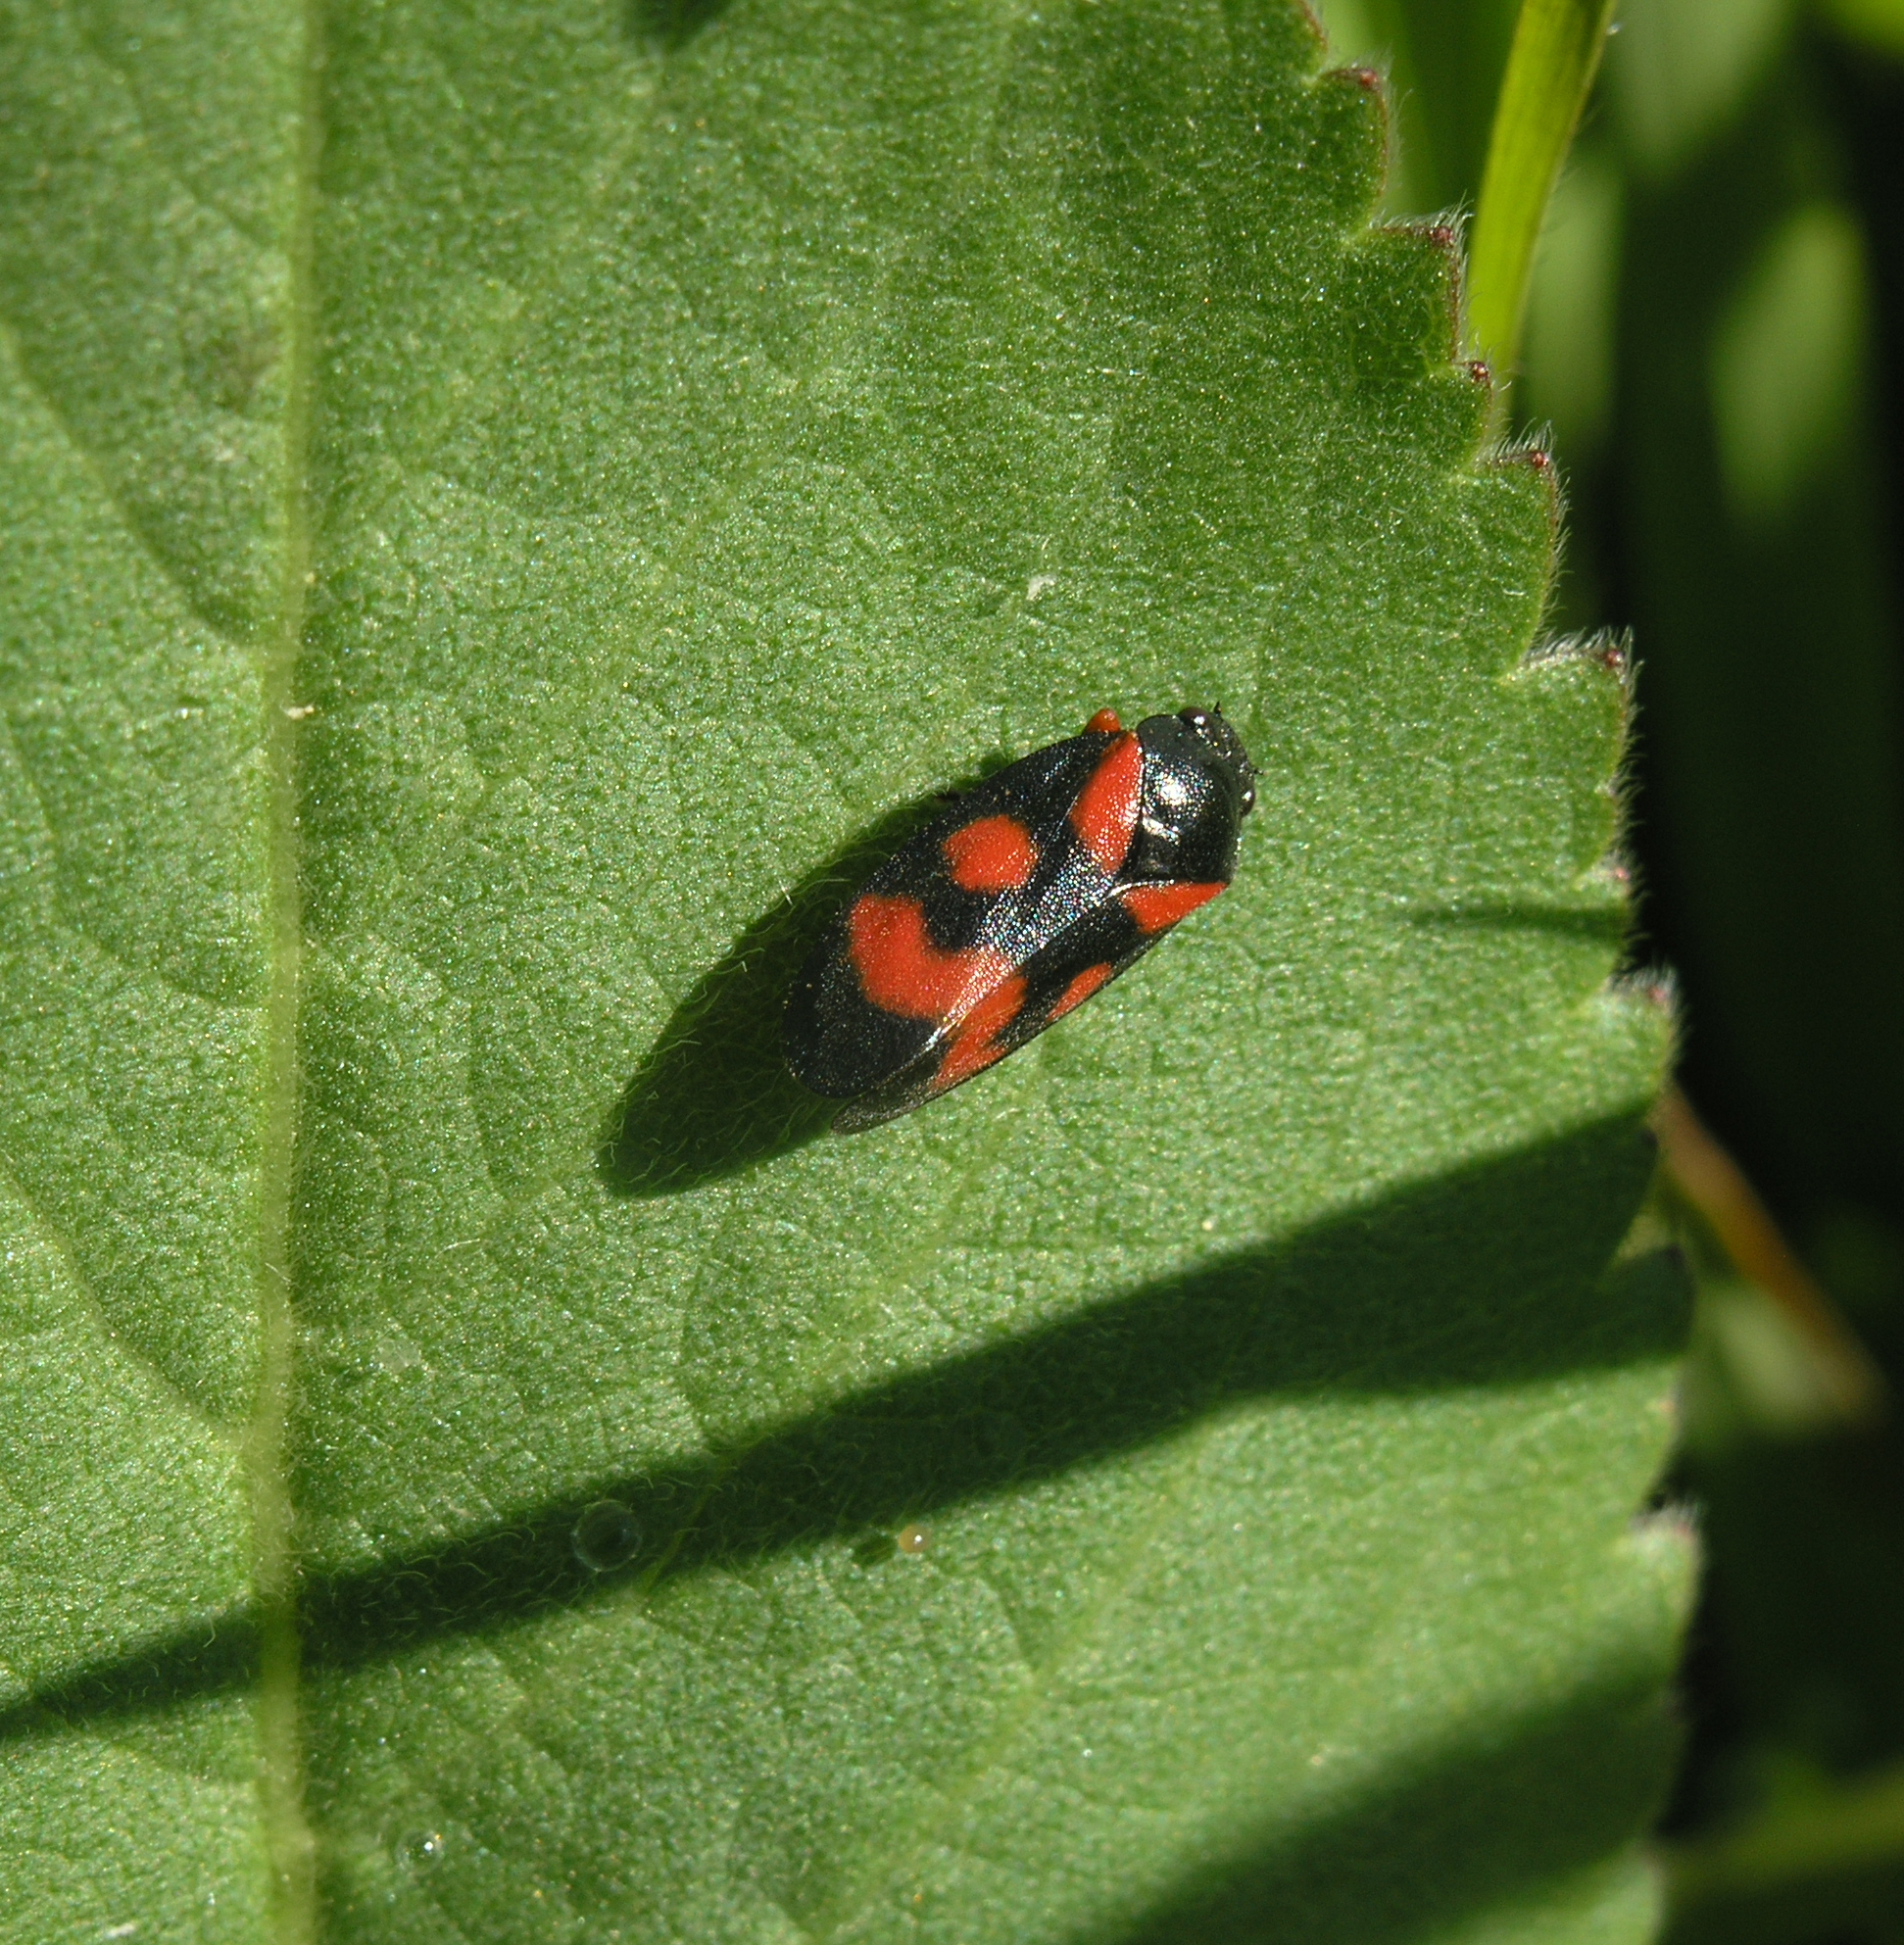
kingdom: Animalia
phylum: Arthropoda
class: Insecta
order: Hemiptera
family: Cercopidae
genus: Cercopis
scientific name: Cercopis intermedia
